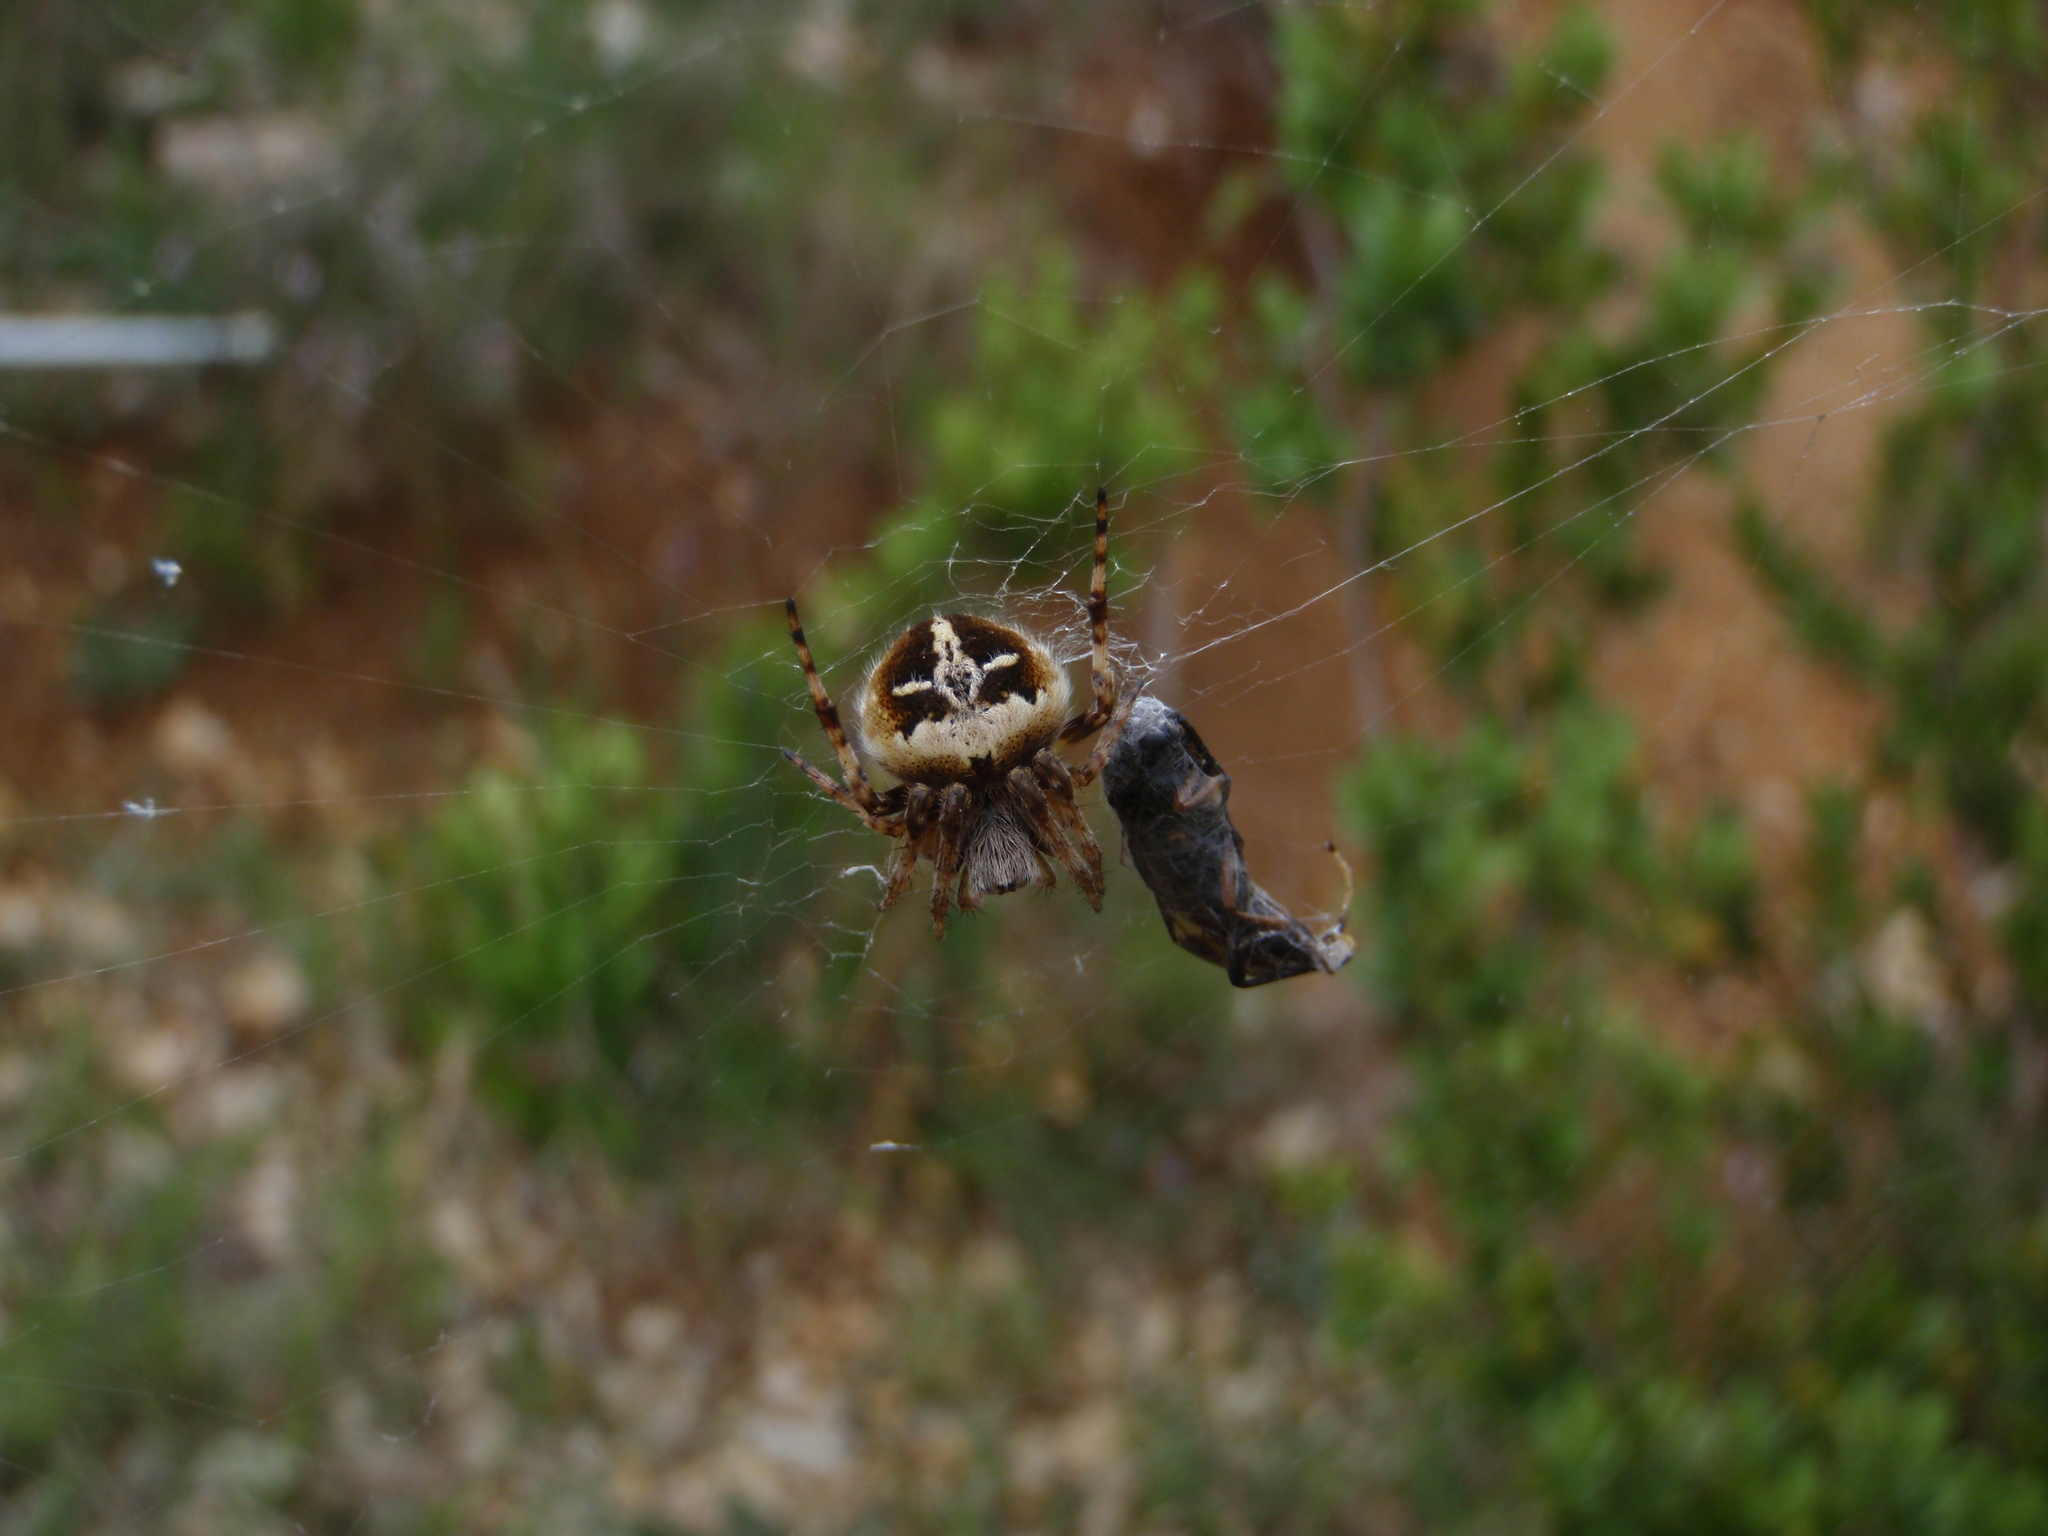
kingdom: Animalia
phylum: Arthropoda
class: Arachnida
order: Araneae
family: Araneidae
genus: Agalenatea
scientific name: Agalenatea redii
